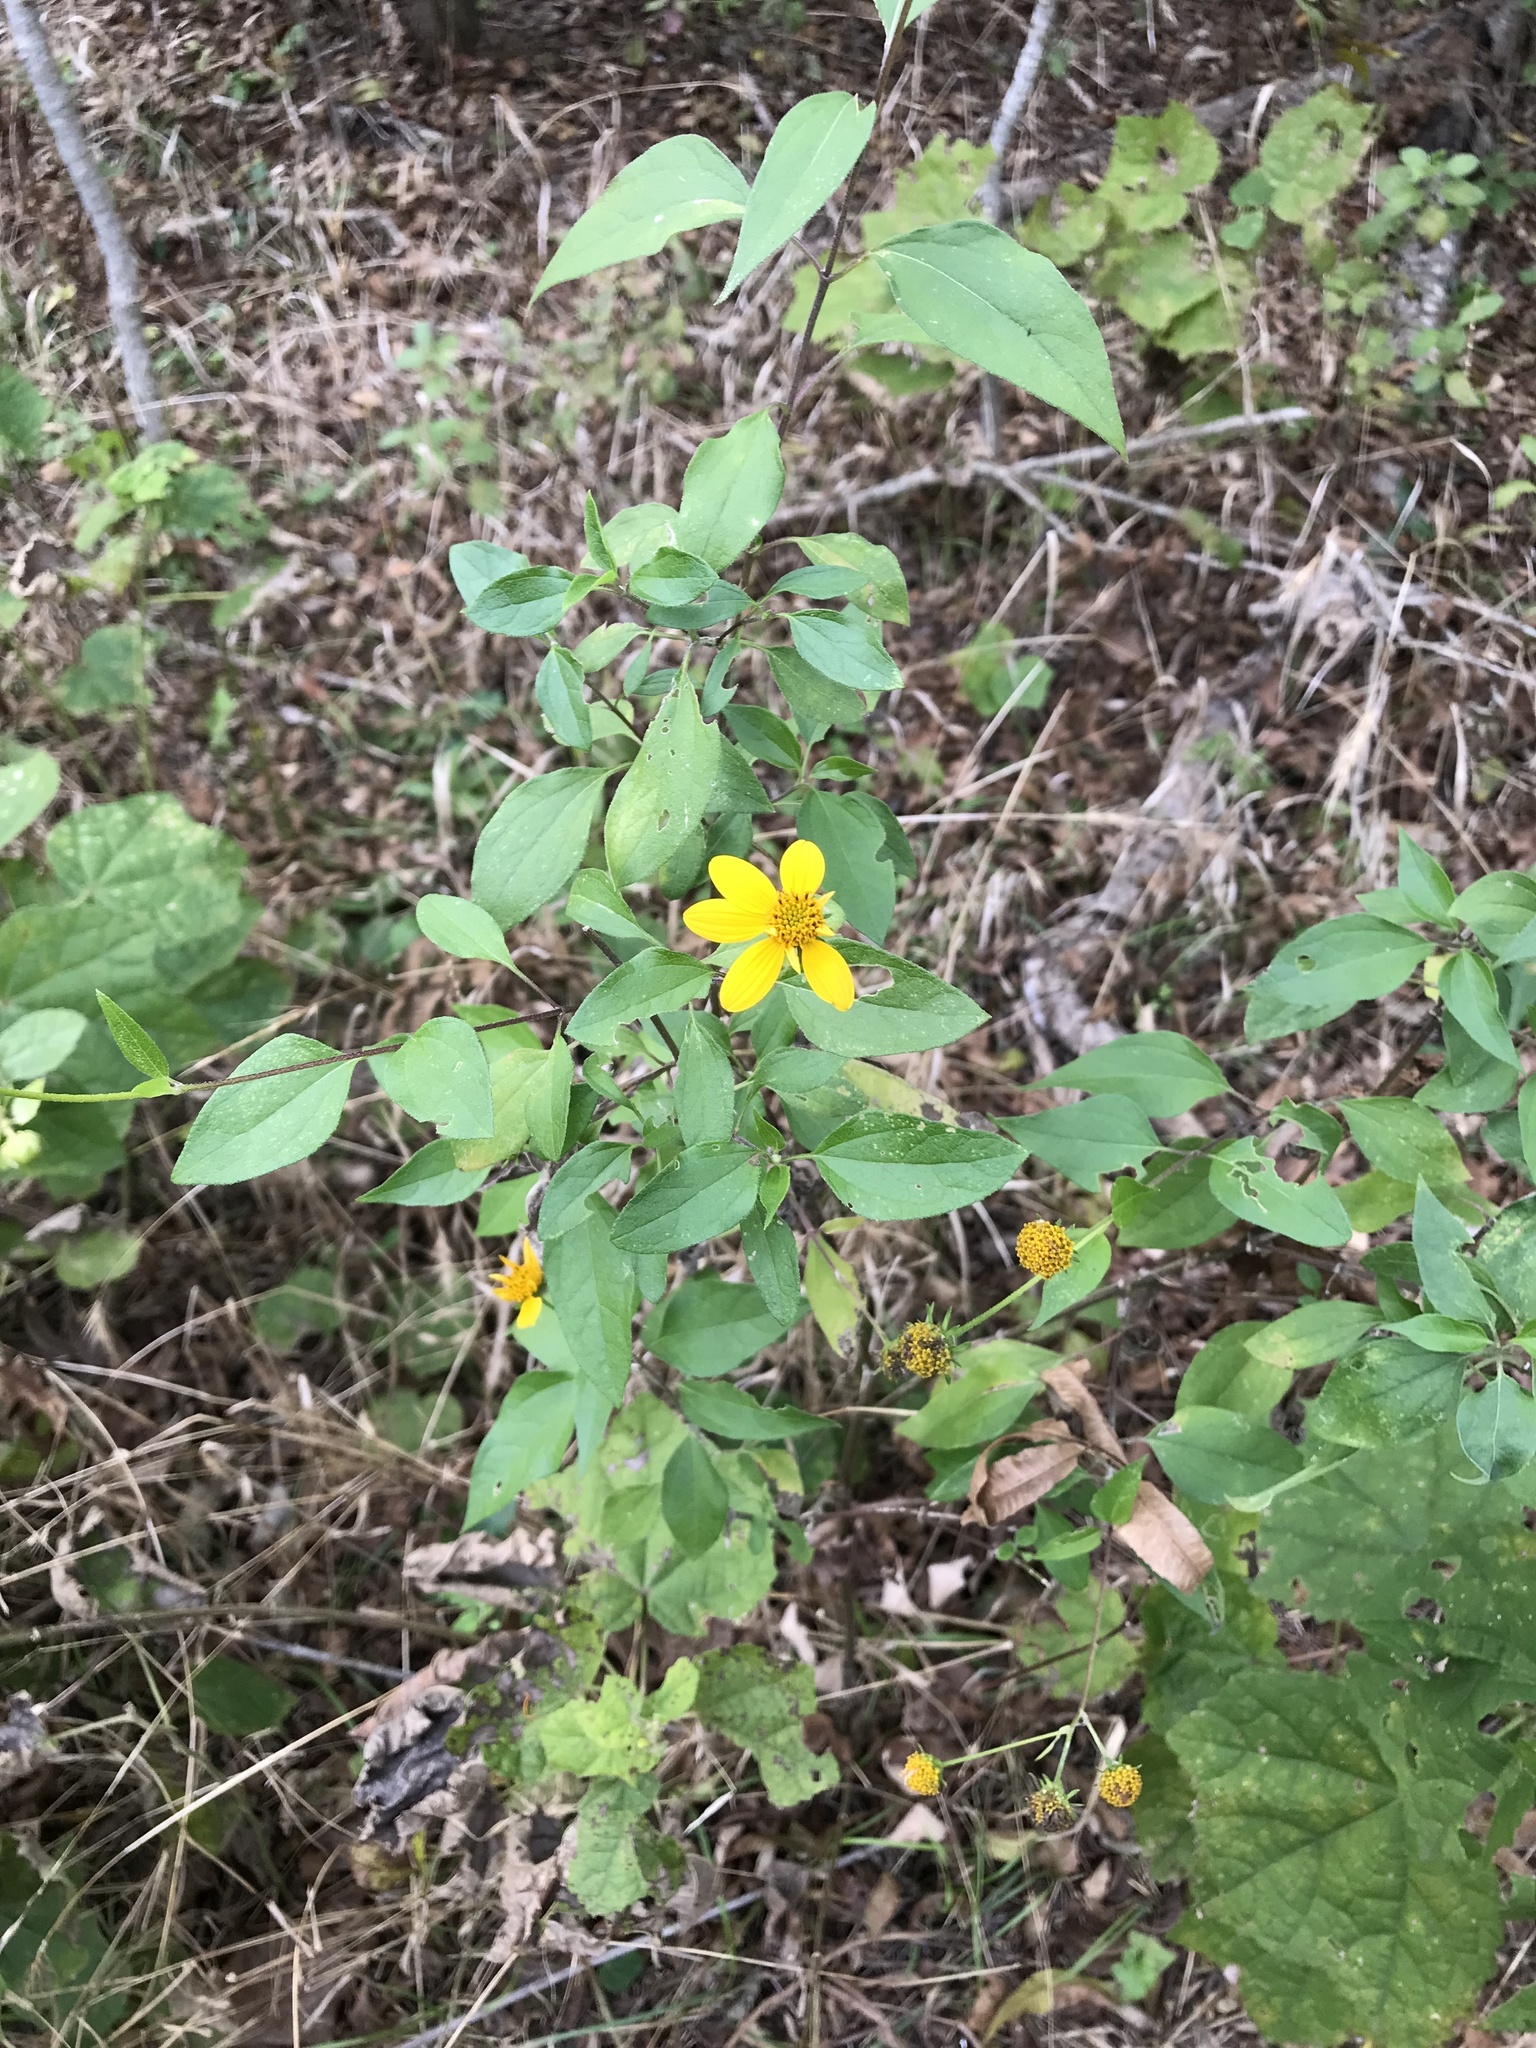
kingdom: Plantae
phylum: Tracheophyta
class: Magnoliopsida
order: Asterales
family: Asteraceae
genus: Viguiera
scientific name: Viguiera dentata
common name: Toothleaf
